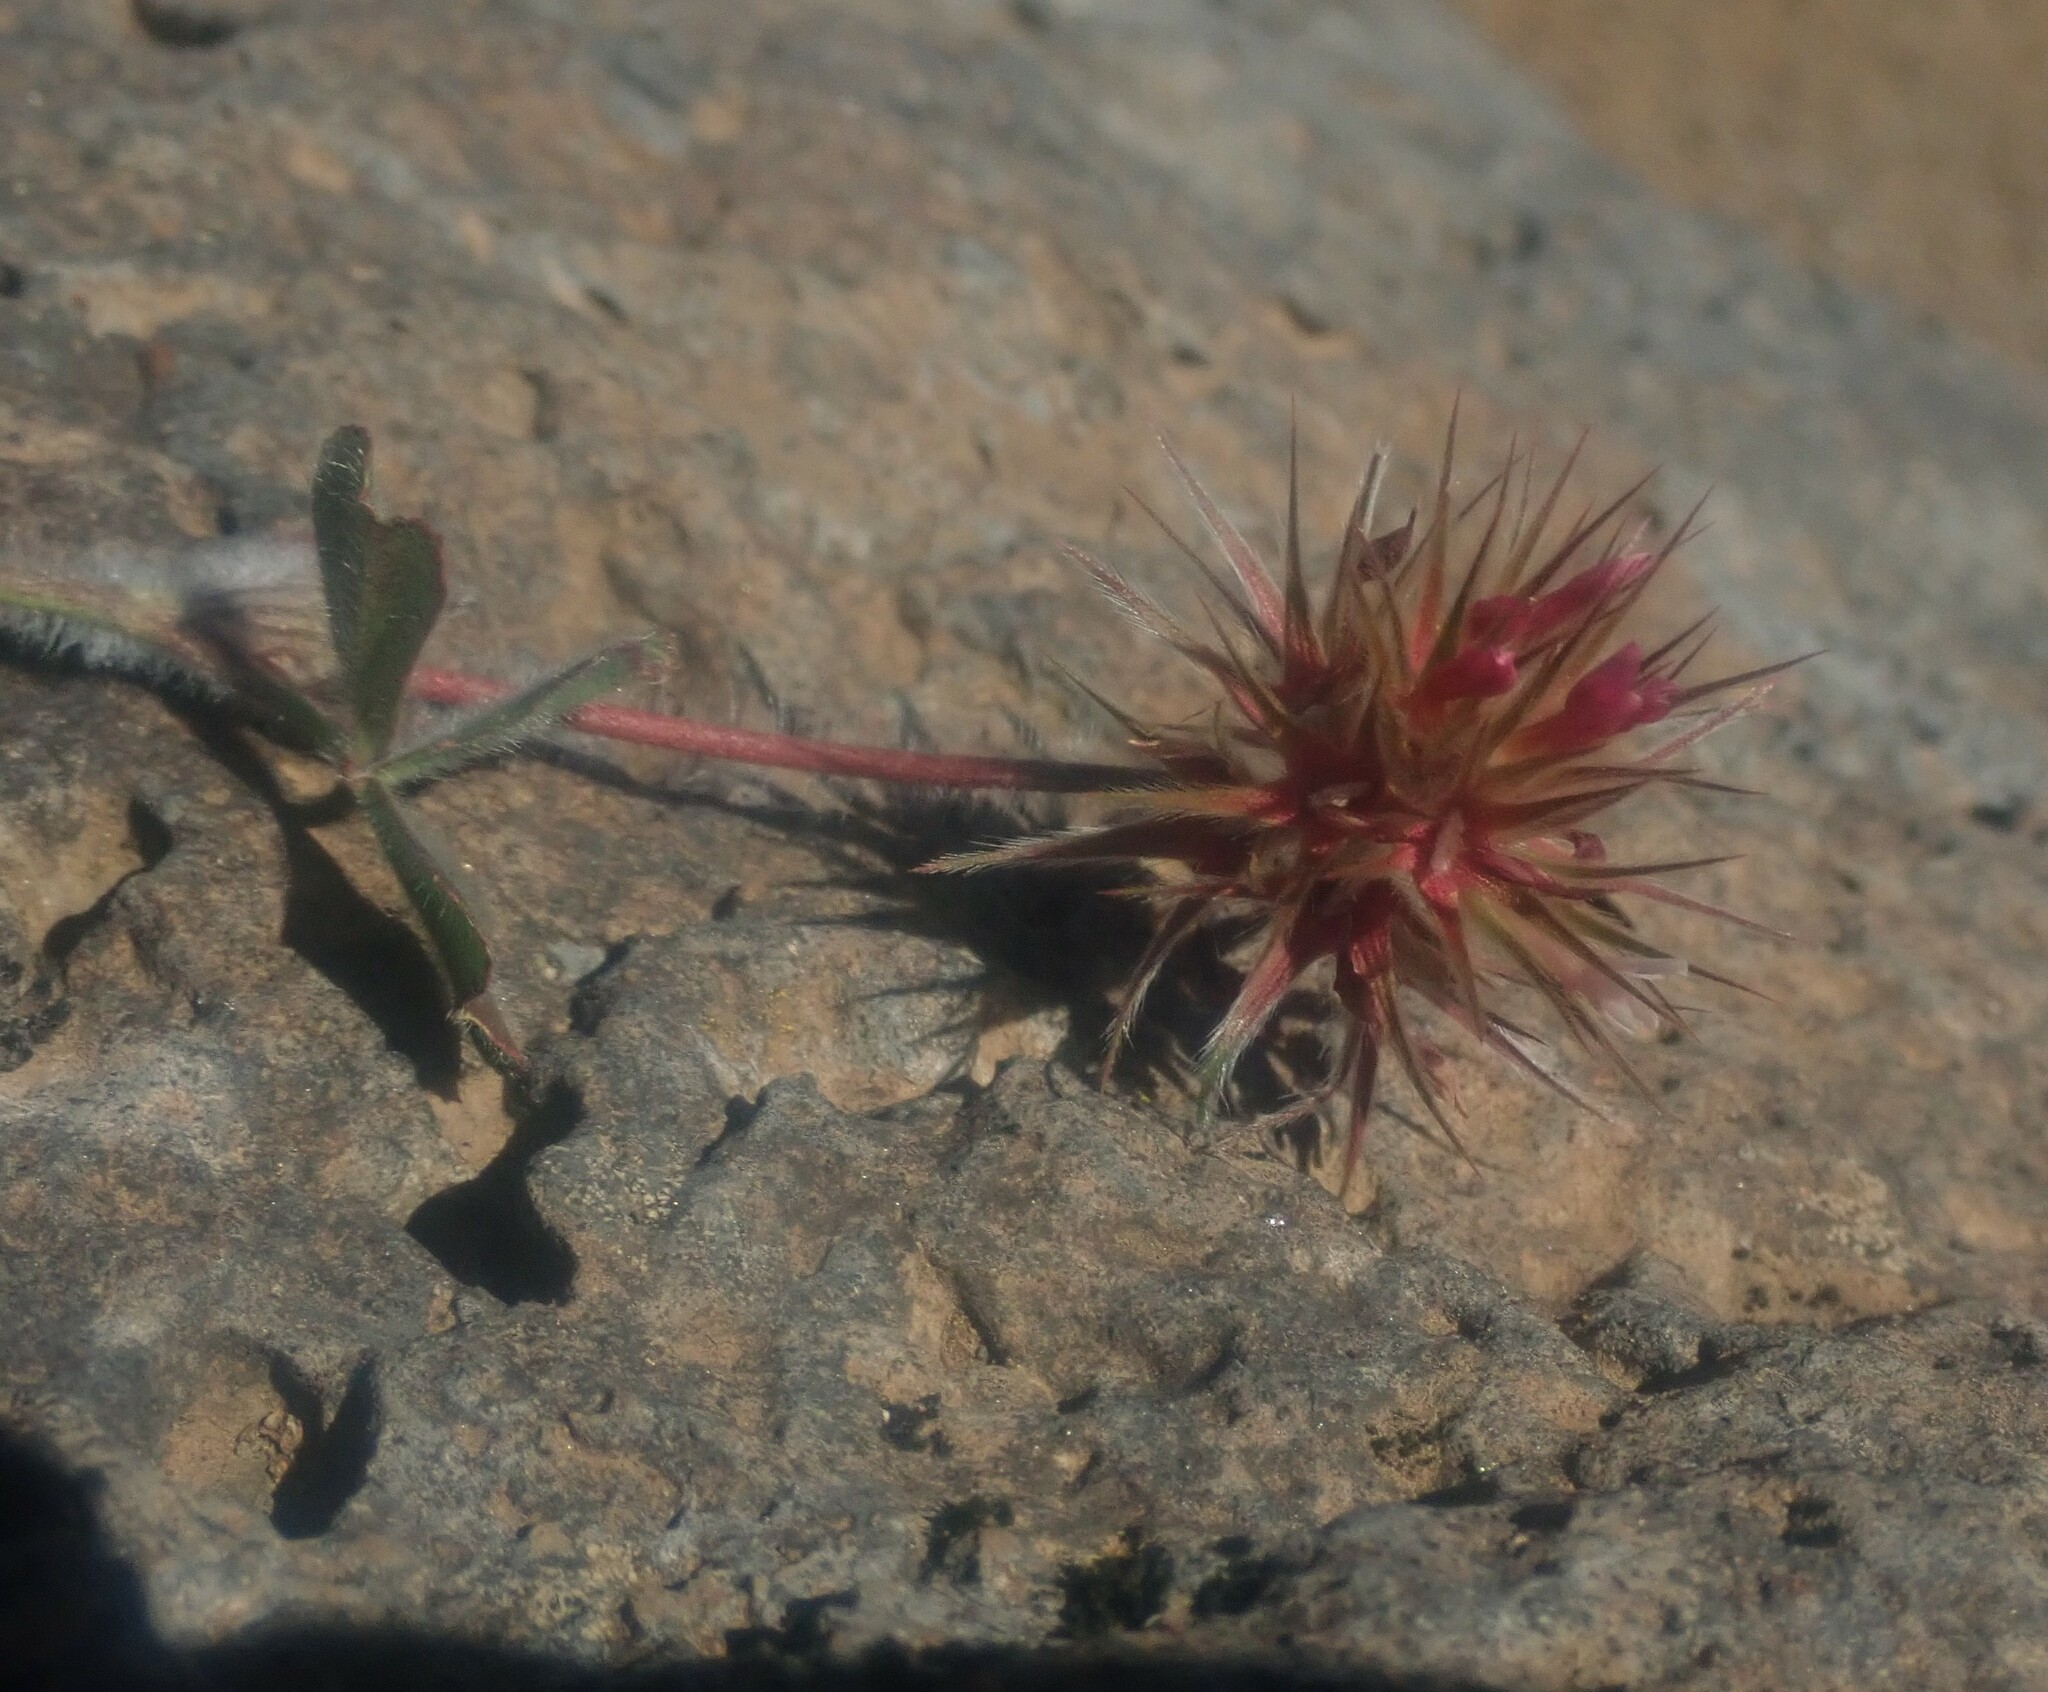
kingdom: Plantae
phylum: Tracheophyta
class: Magnoliopsida
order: Fabales
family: Fabaceae
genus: Trifolium
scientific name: Trifolium stellatum
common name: Starry clover
